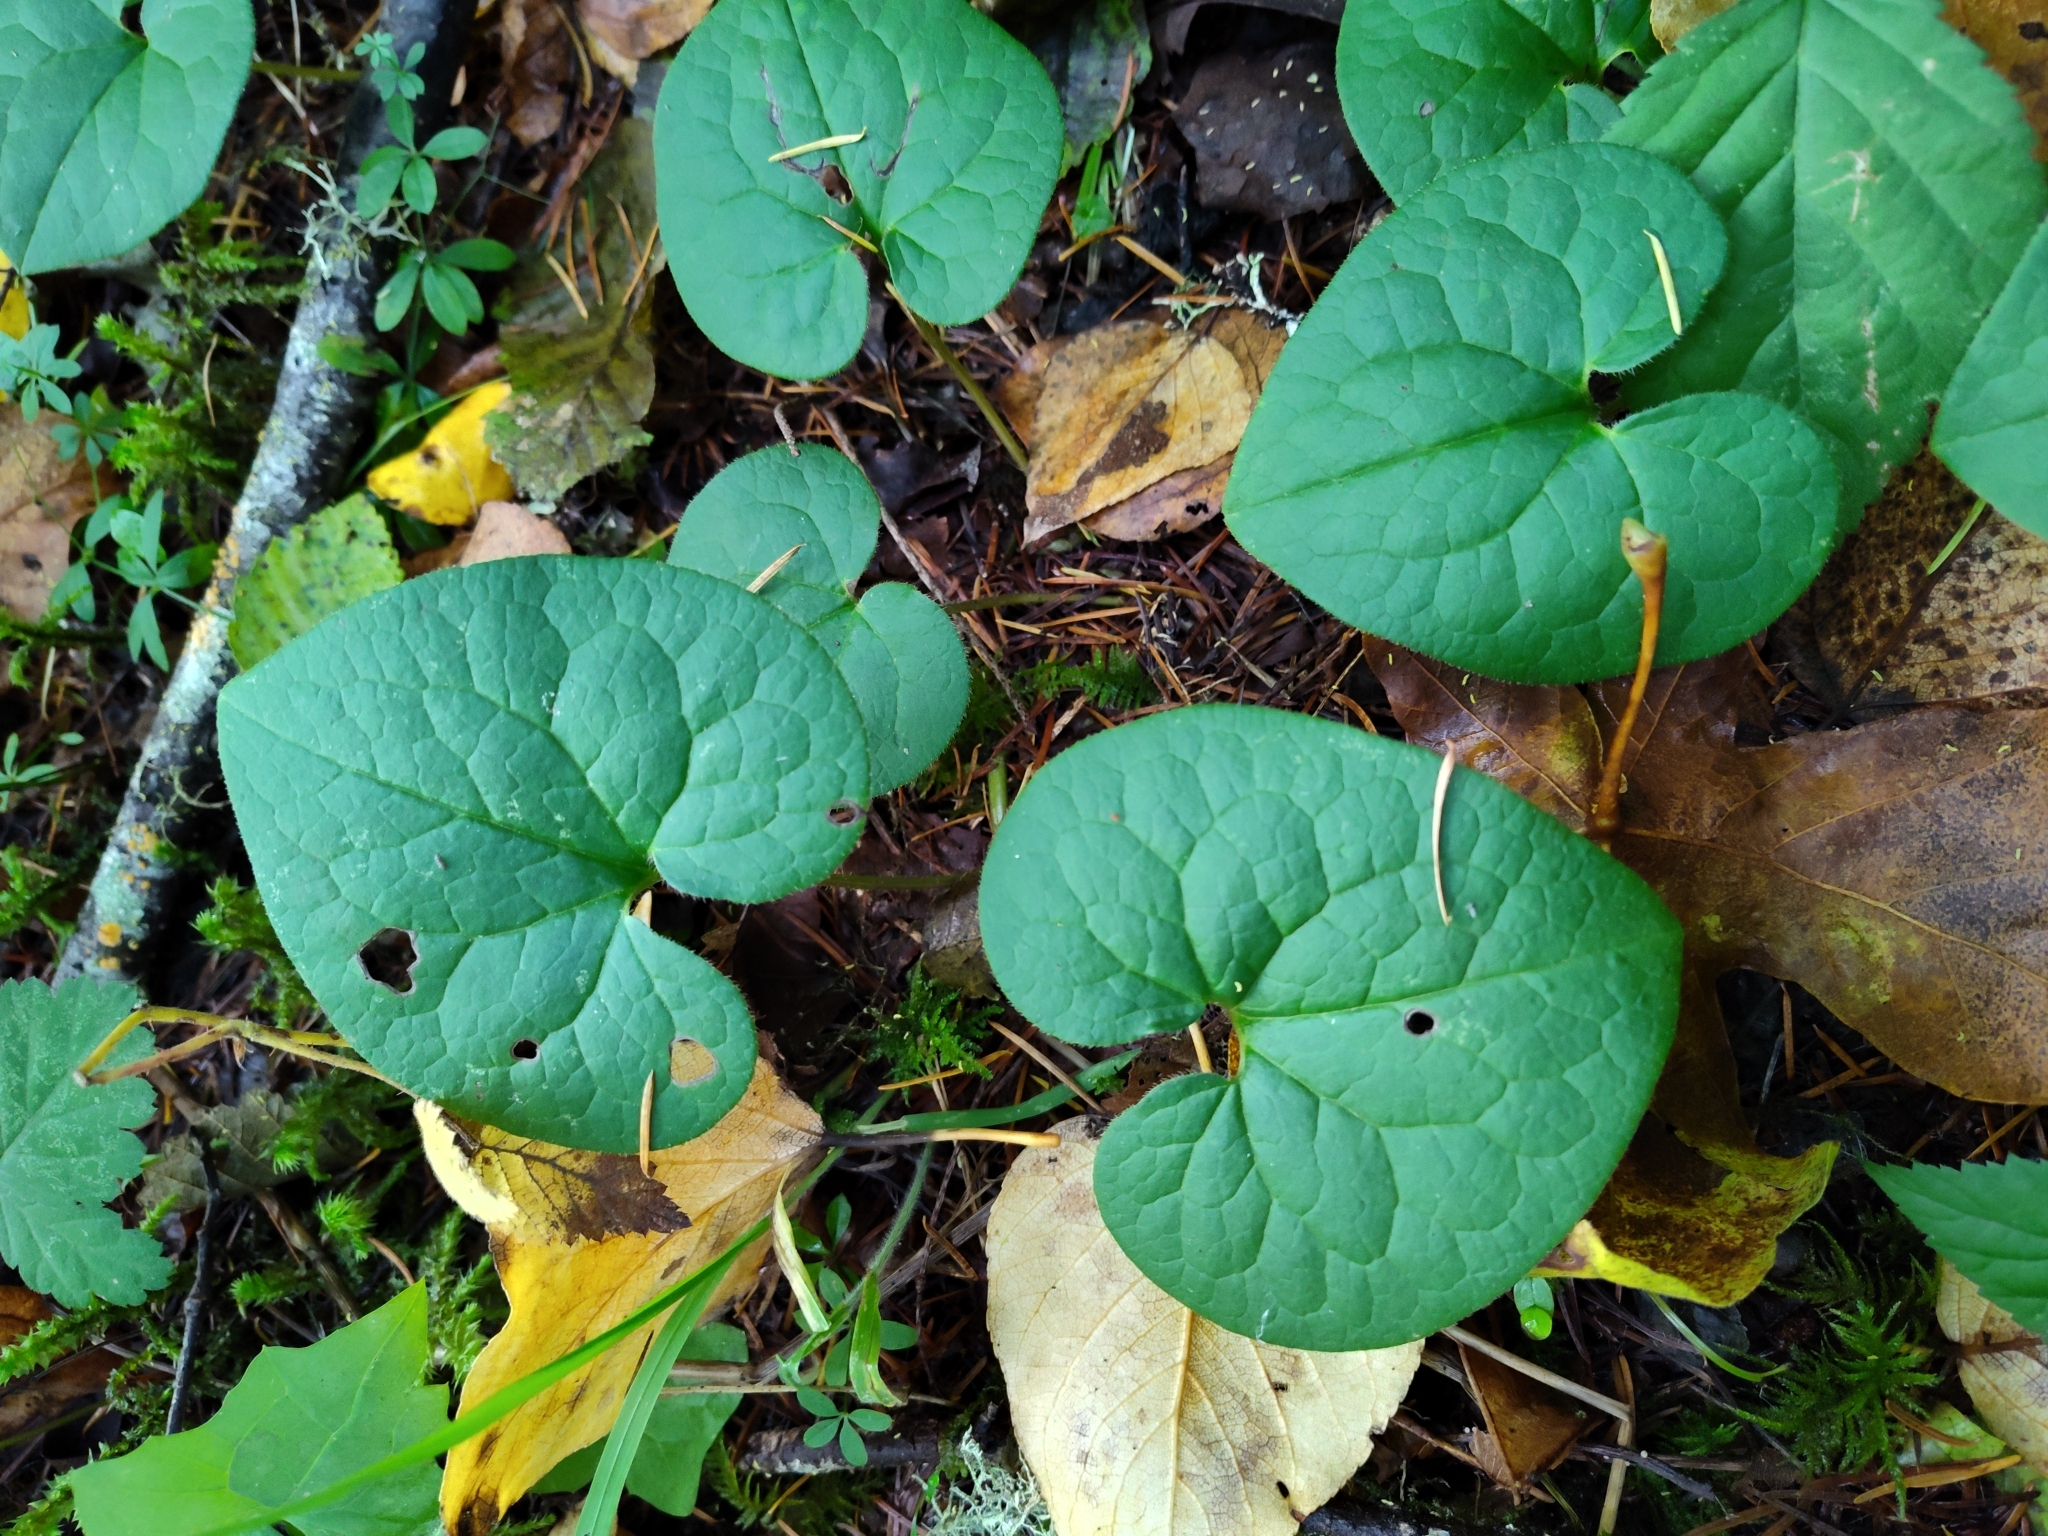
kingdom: Plantae
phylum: Tracheophyta
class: Magnoliopsida
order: Piperales
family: Aristolochiaceae
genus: Asarum
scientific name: Asarum caudatum
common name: Wild ginger
